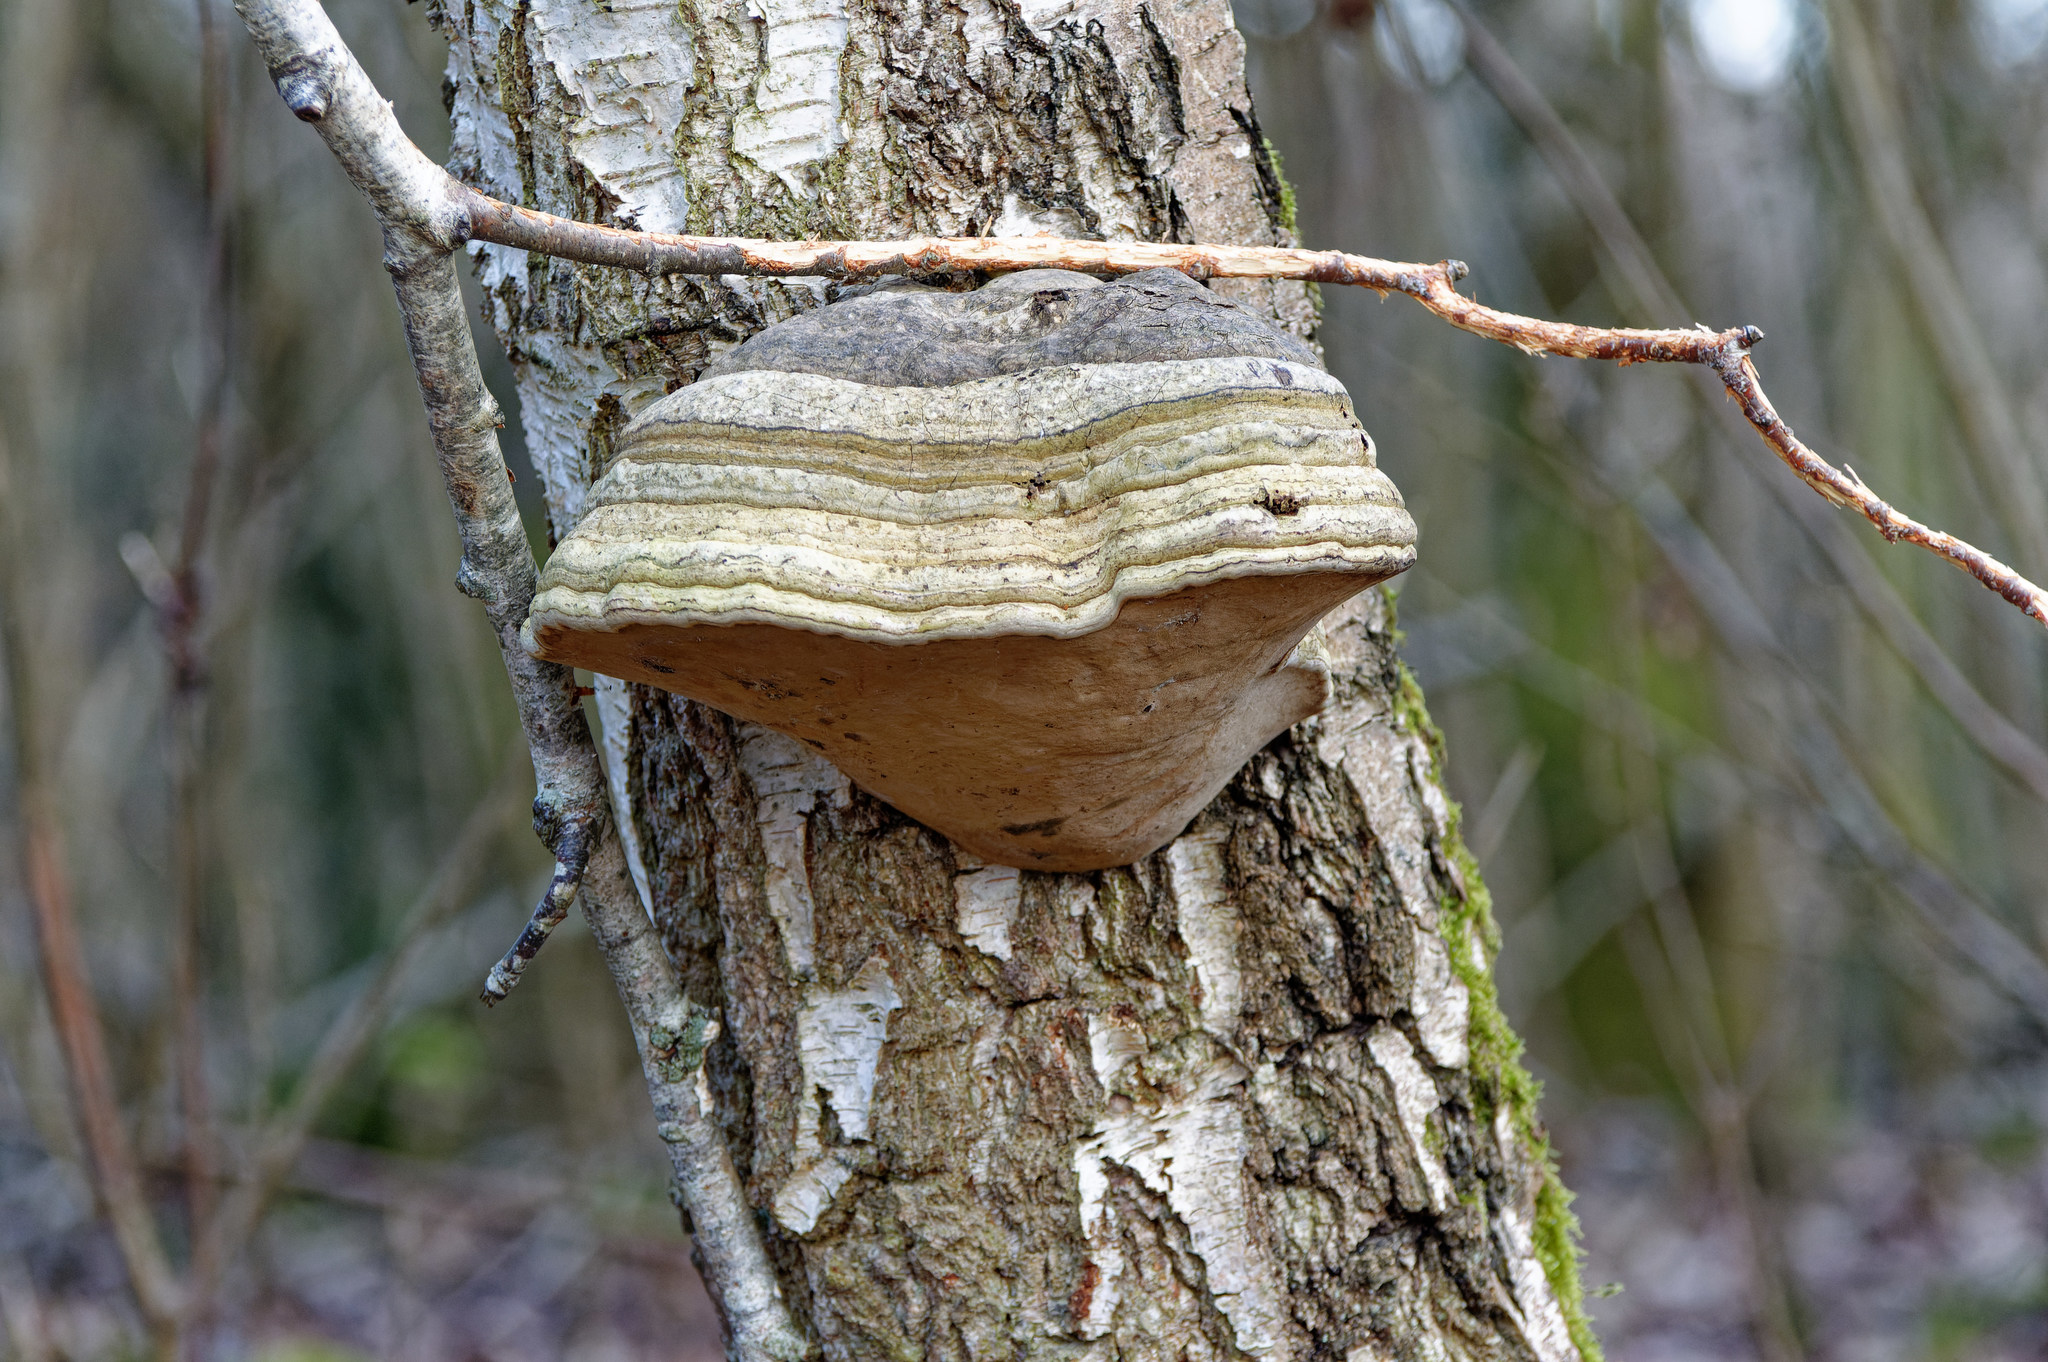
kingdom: Fungi
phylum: Basidiomycota
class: Agaricomycetes
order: Polyporales
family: Polyporaceae
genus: Fomes
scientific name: Fomes fomentarius
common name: Hoof fungus
